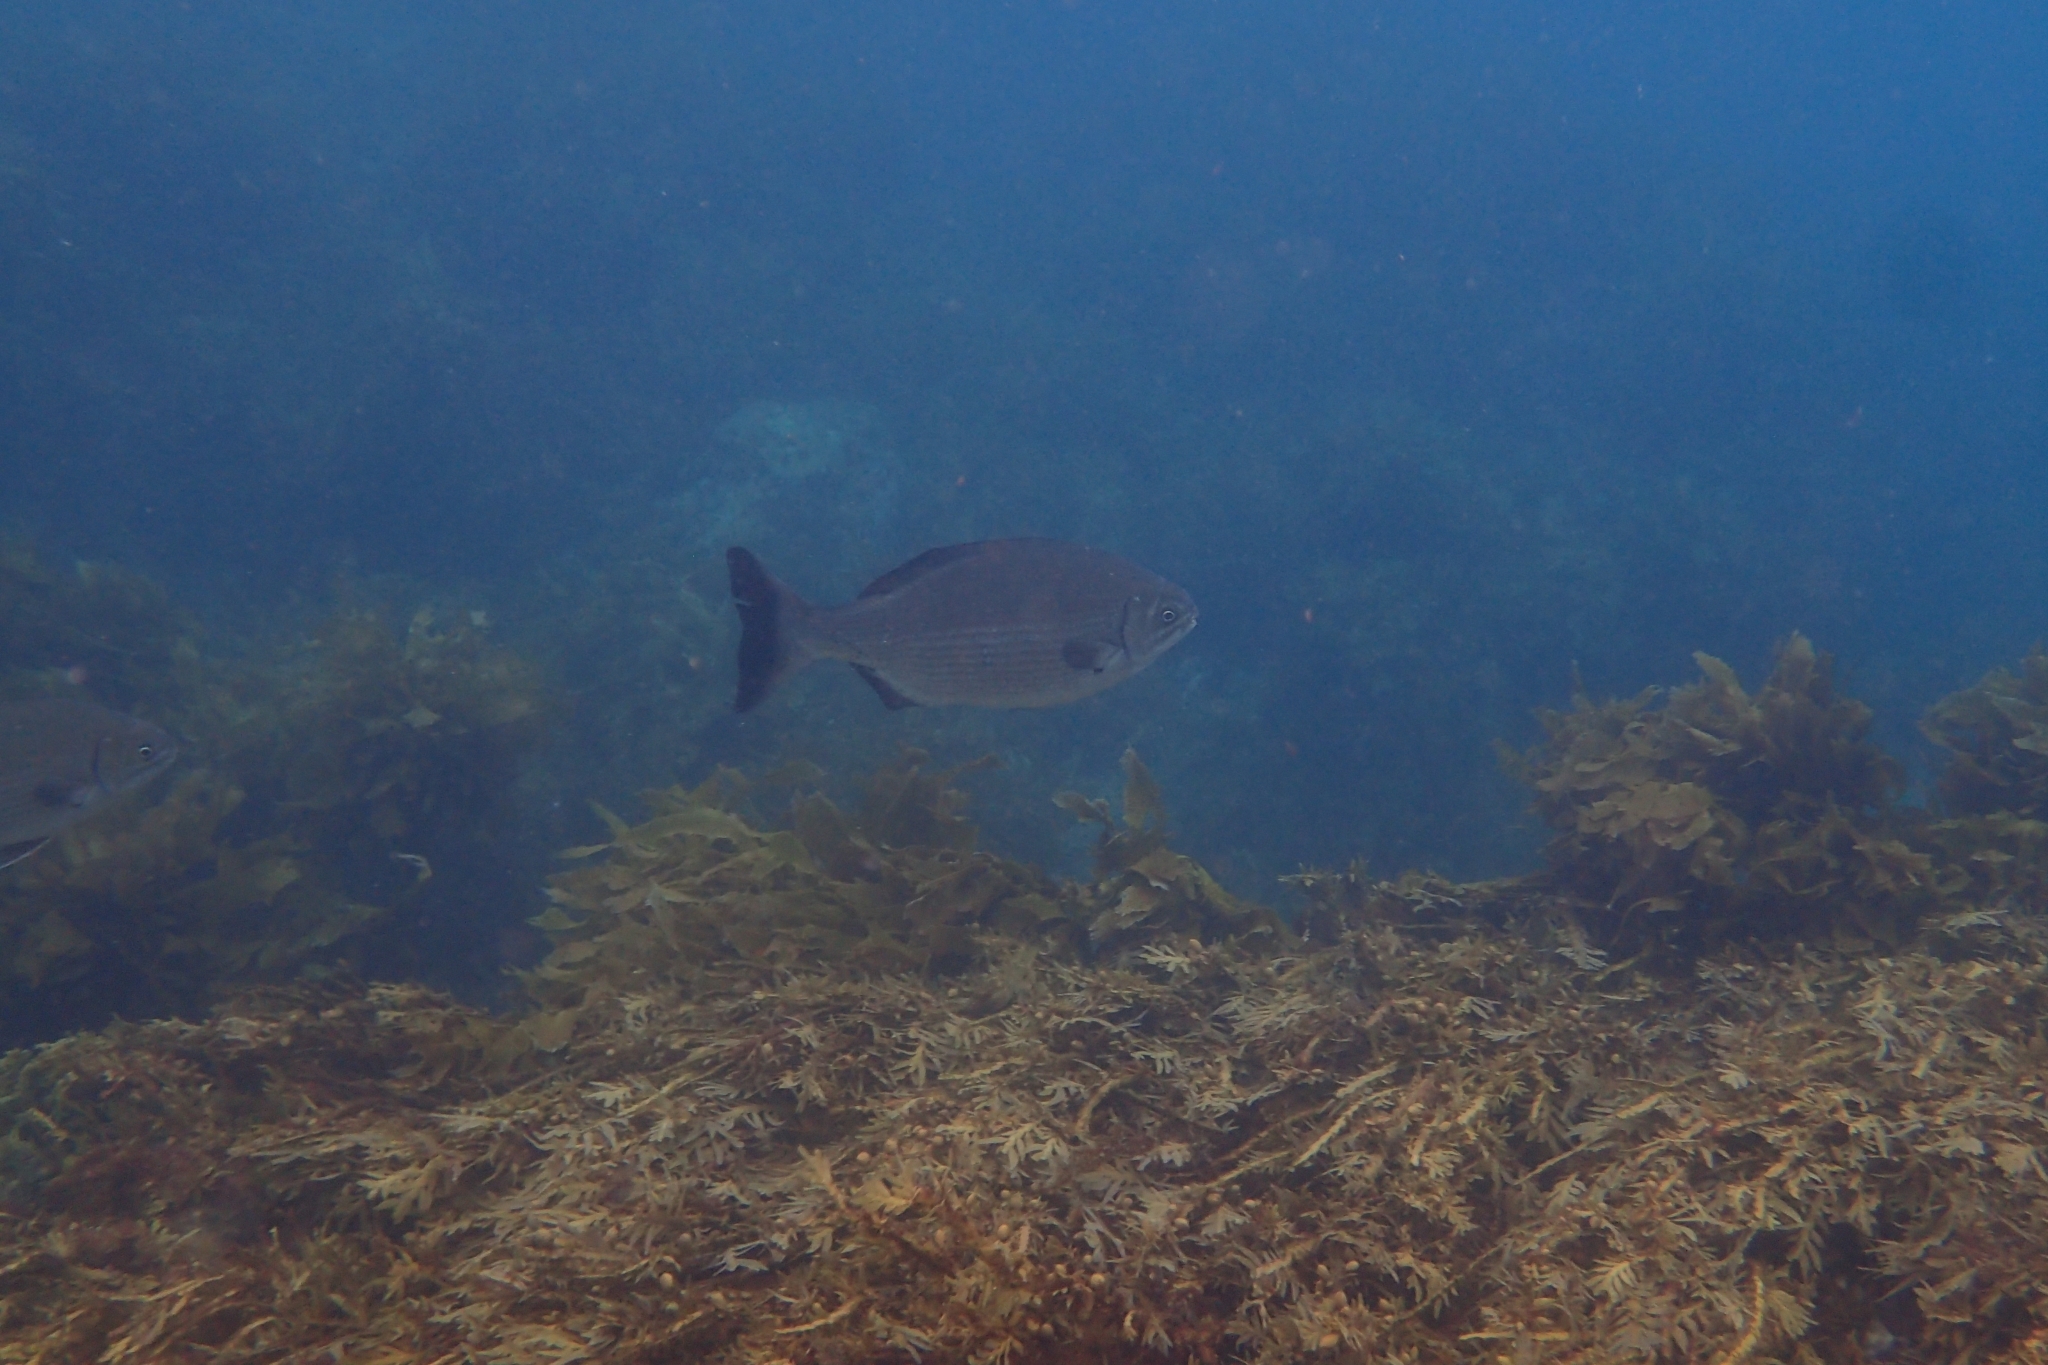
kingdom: Animalia
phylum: Chordata
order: Perciformes
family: Kyphosidae
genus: Kyphosus
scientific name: Kyphosus sydneyanus
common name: Silver drummer
